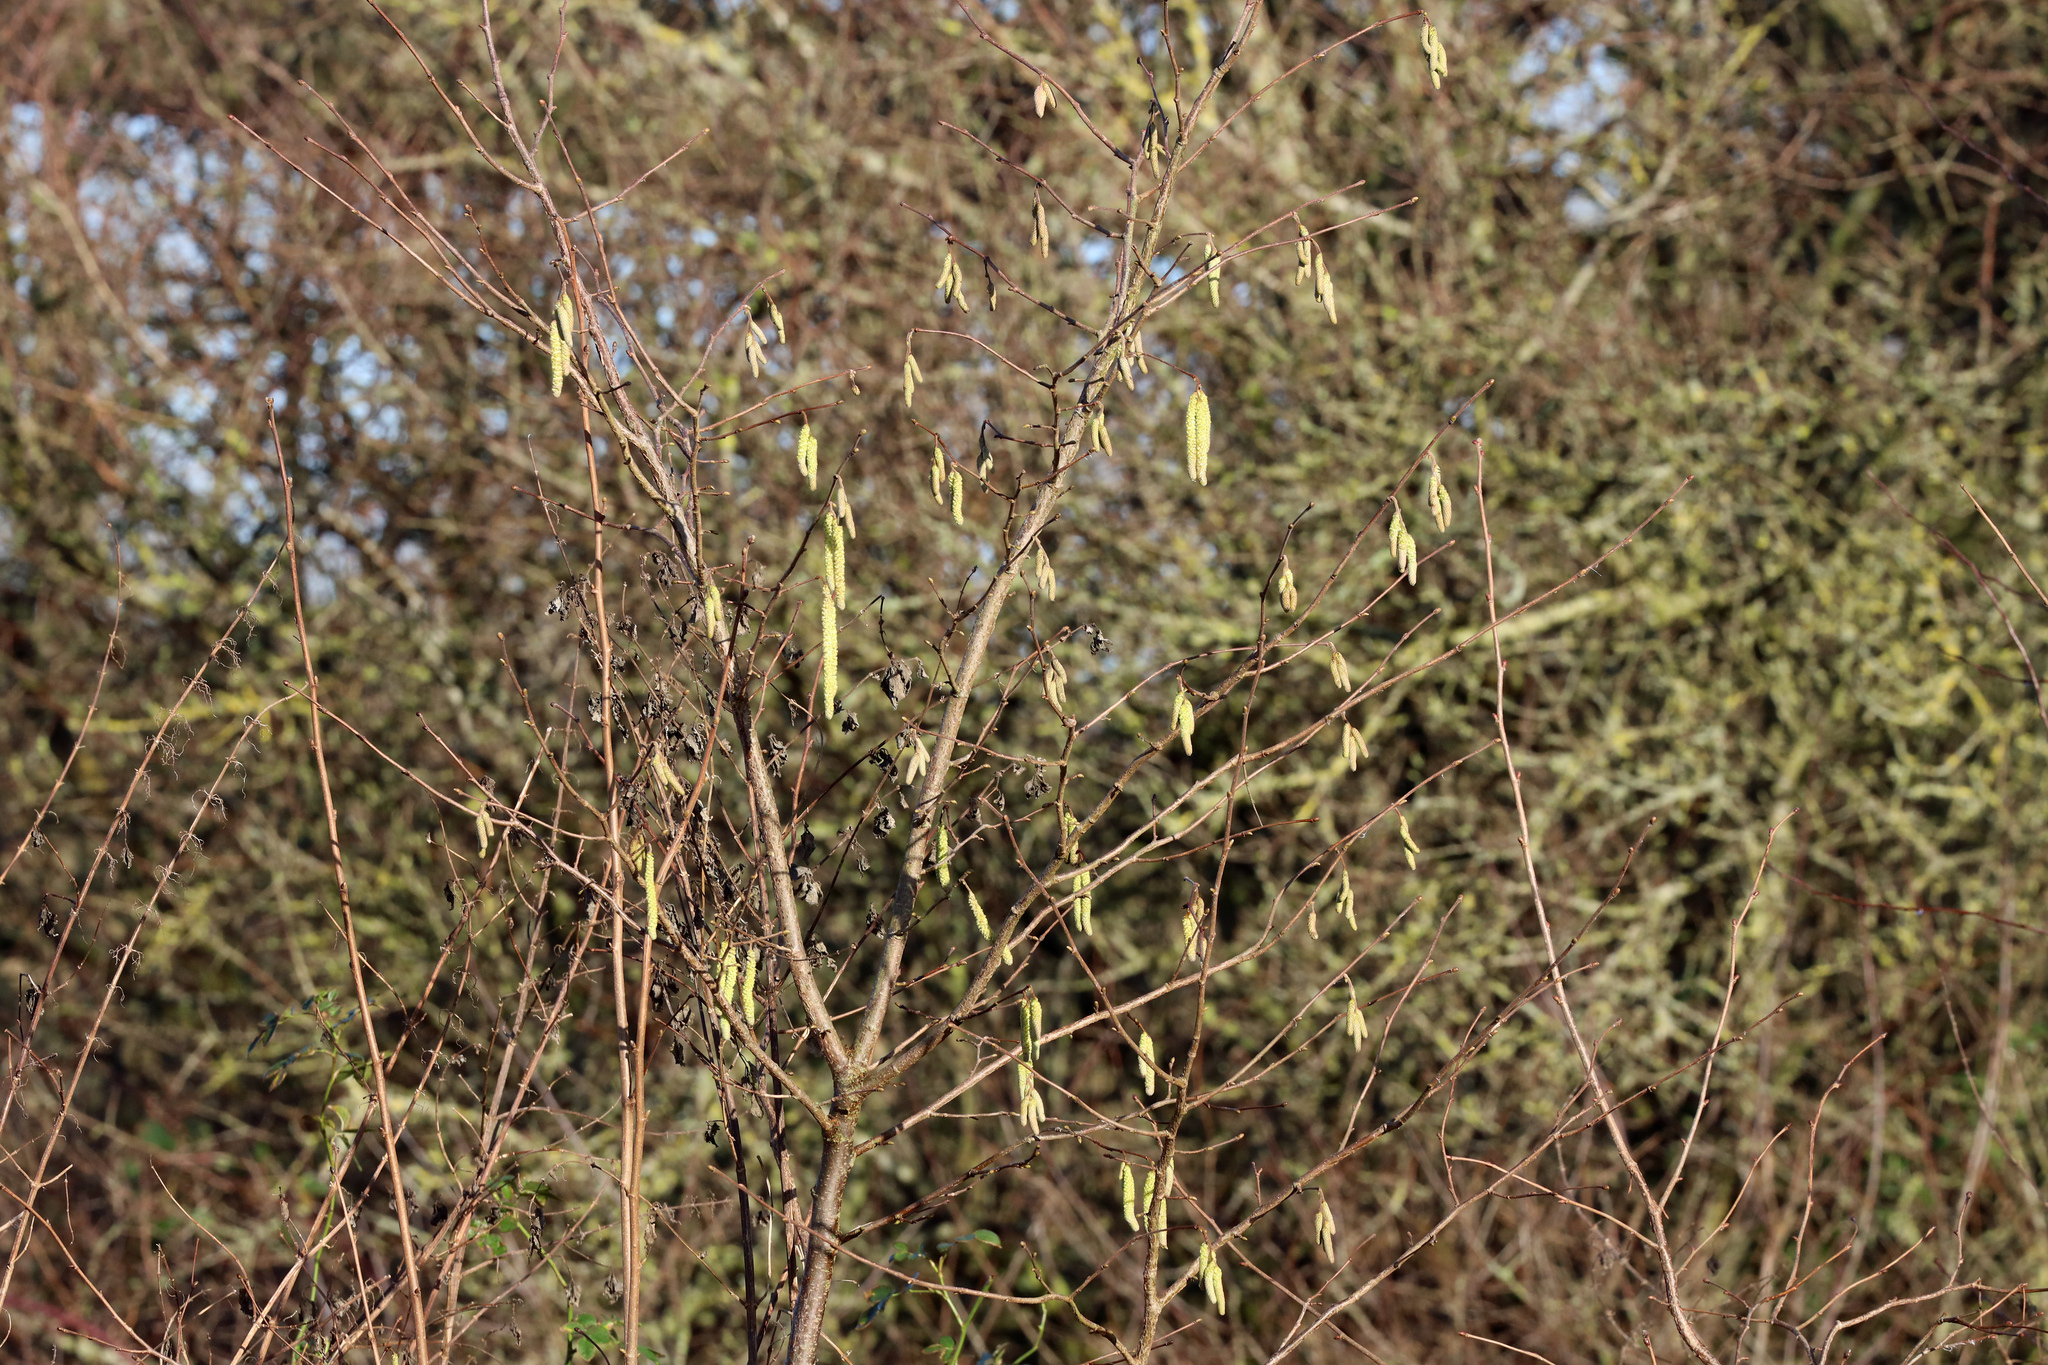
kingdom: Plantae
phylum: Tracheophyta
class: Magnoliopsida
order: Fagales
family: Betulaceae
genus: Alnus
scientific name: Alnus glutinosa
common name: Black alder
